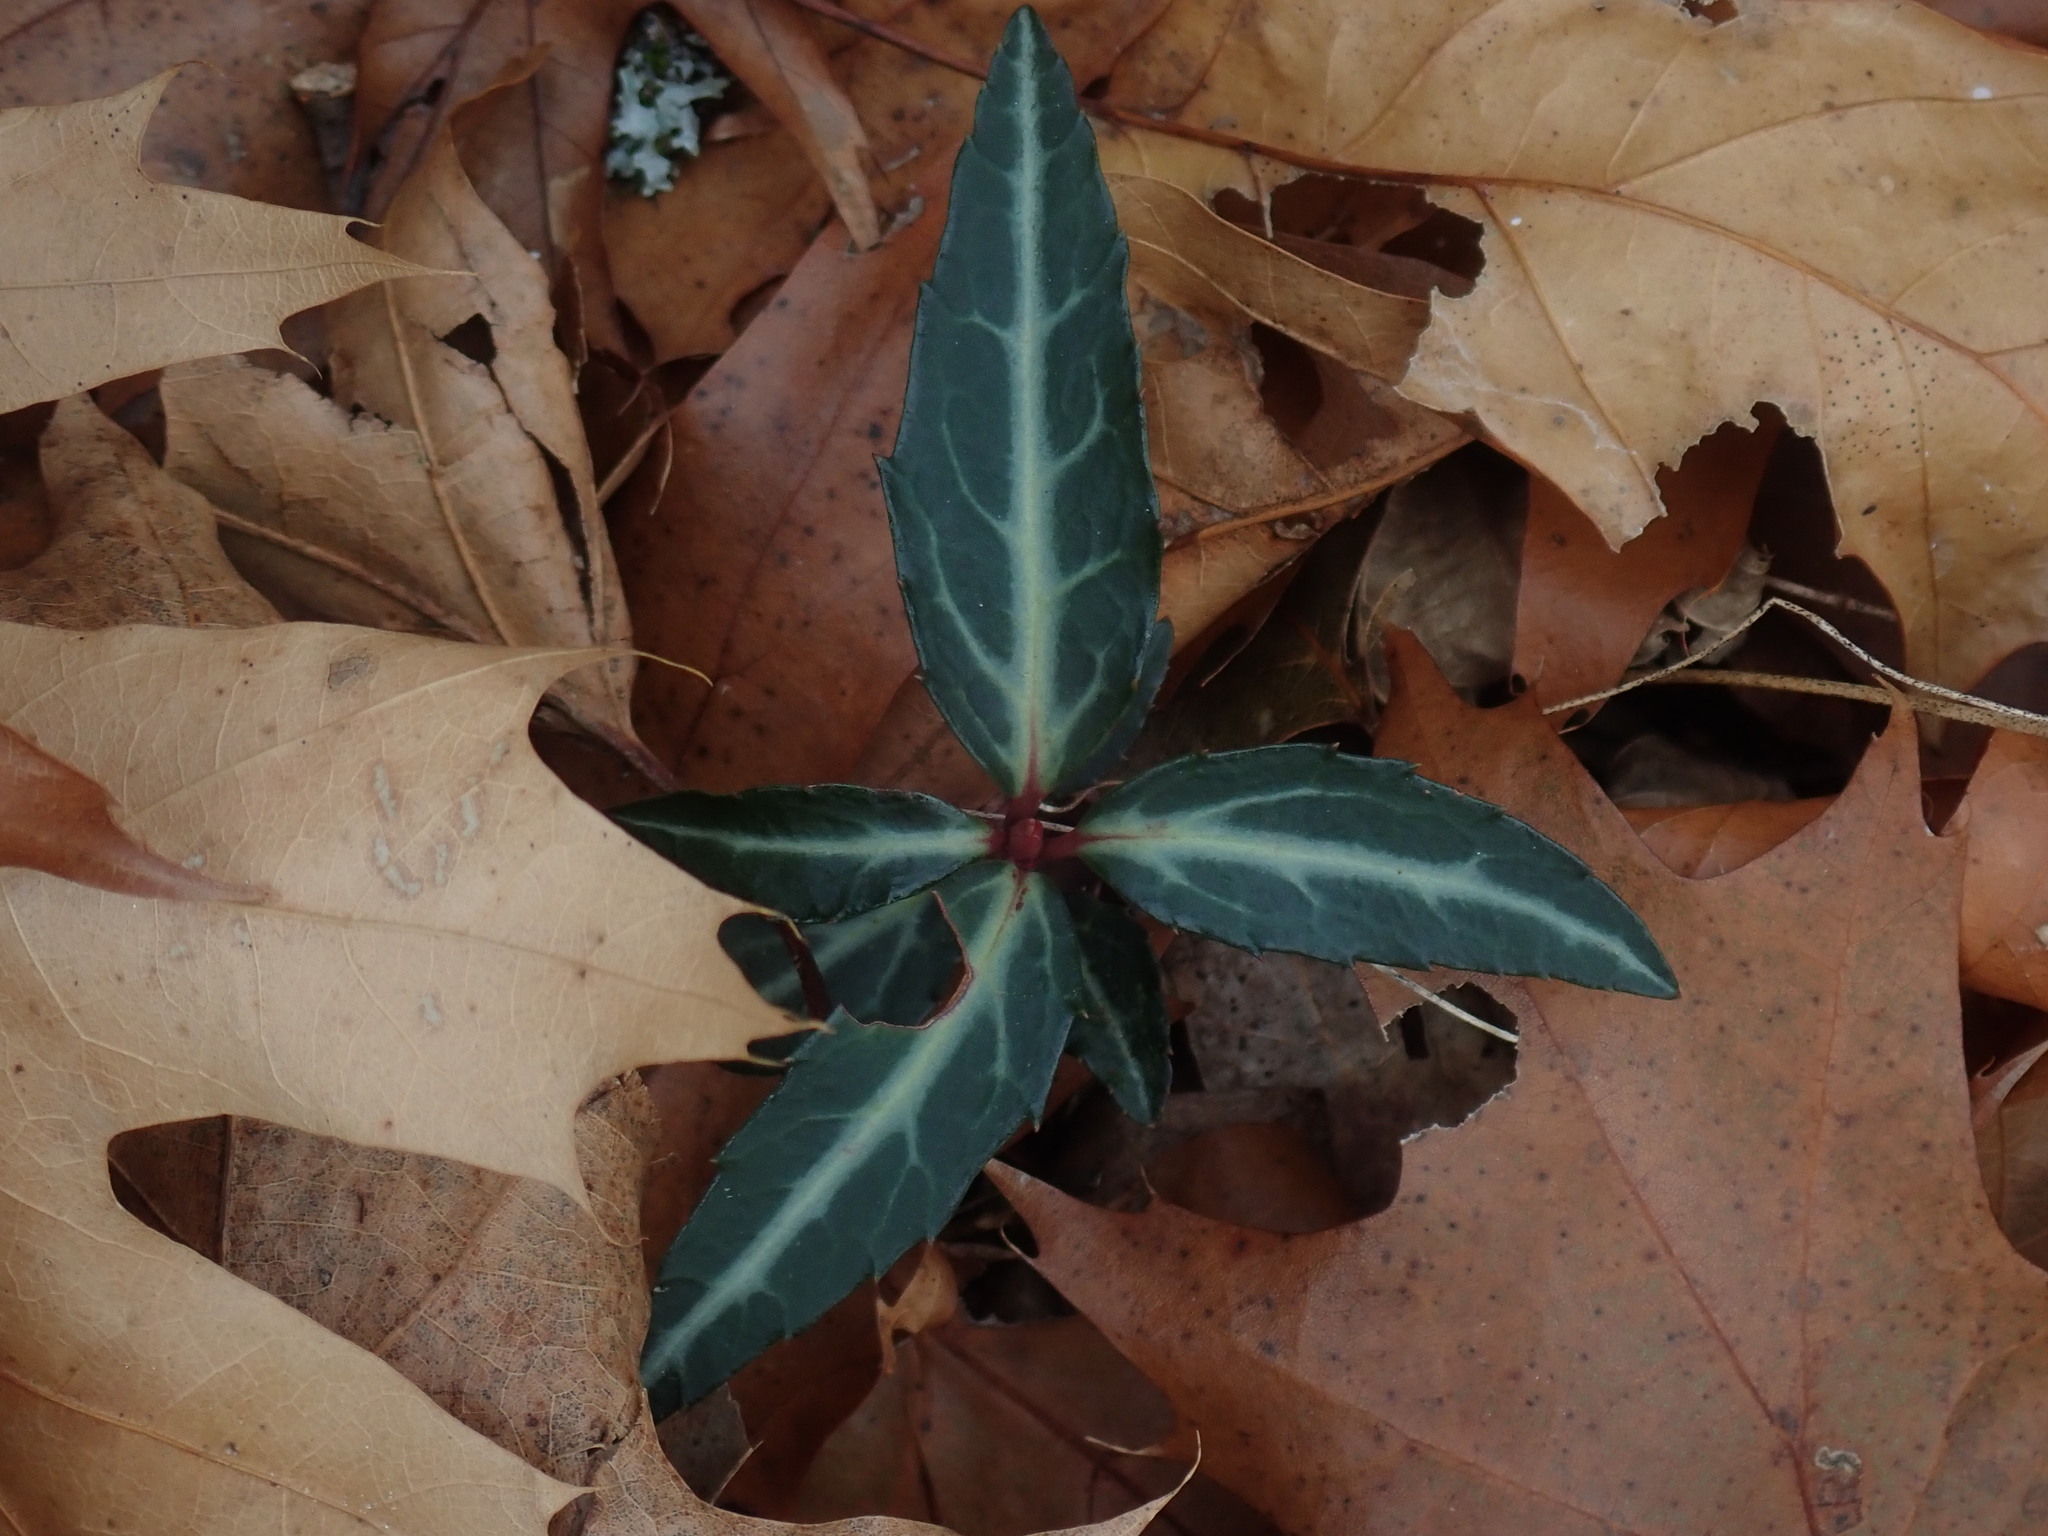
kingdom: Plantae
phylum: Tracheophyta
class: Magnoliopsida
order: Ericales
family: Ericaceae
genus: Chimaphila
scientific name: Chimaphila maculata
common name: Spotted pipsissewa
